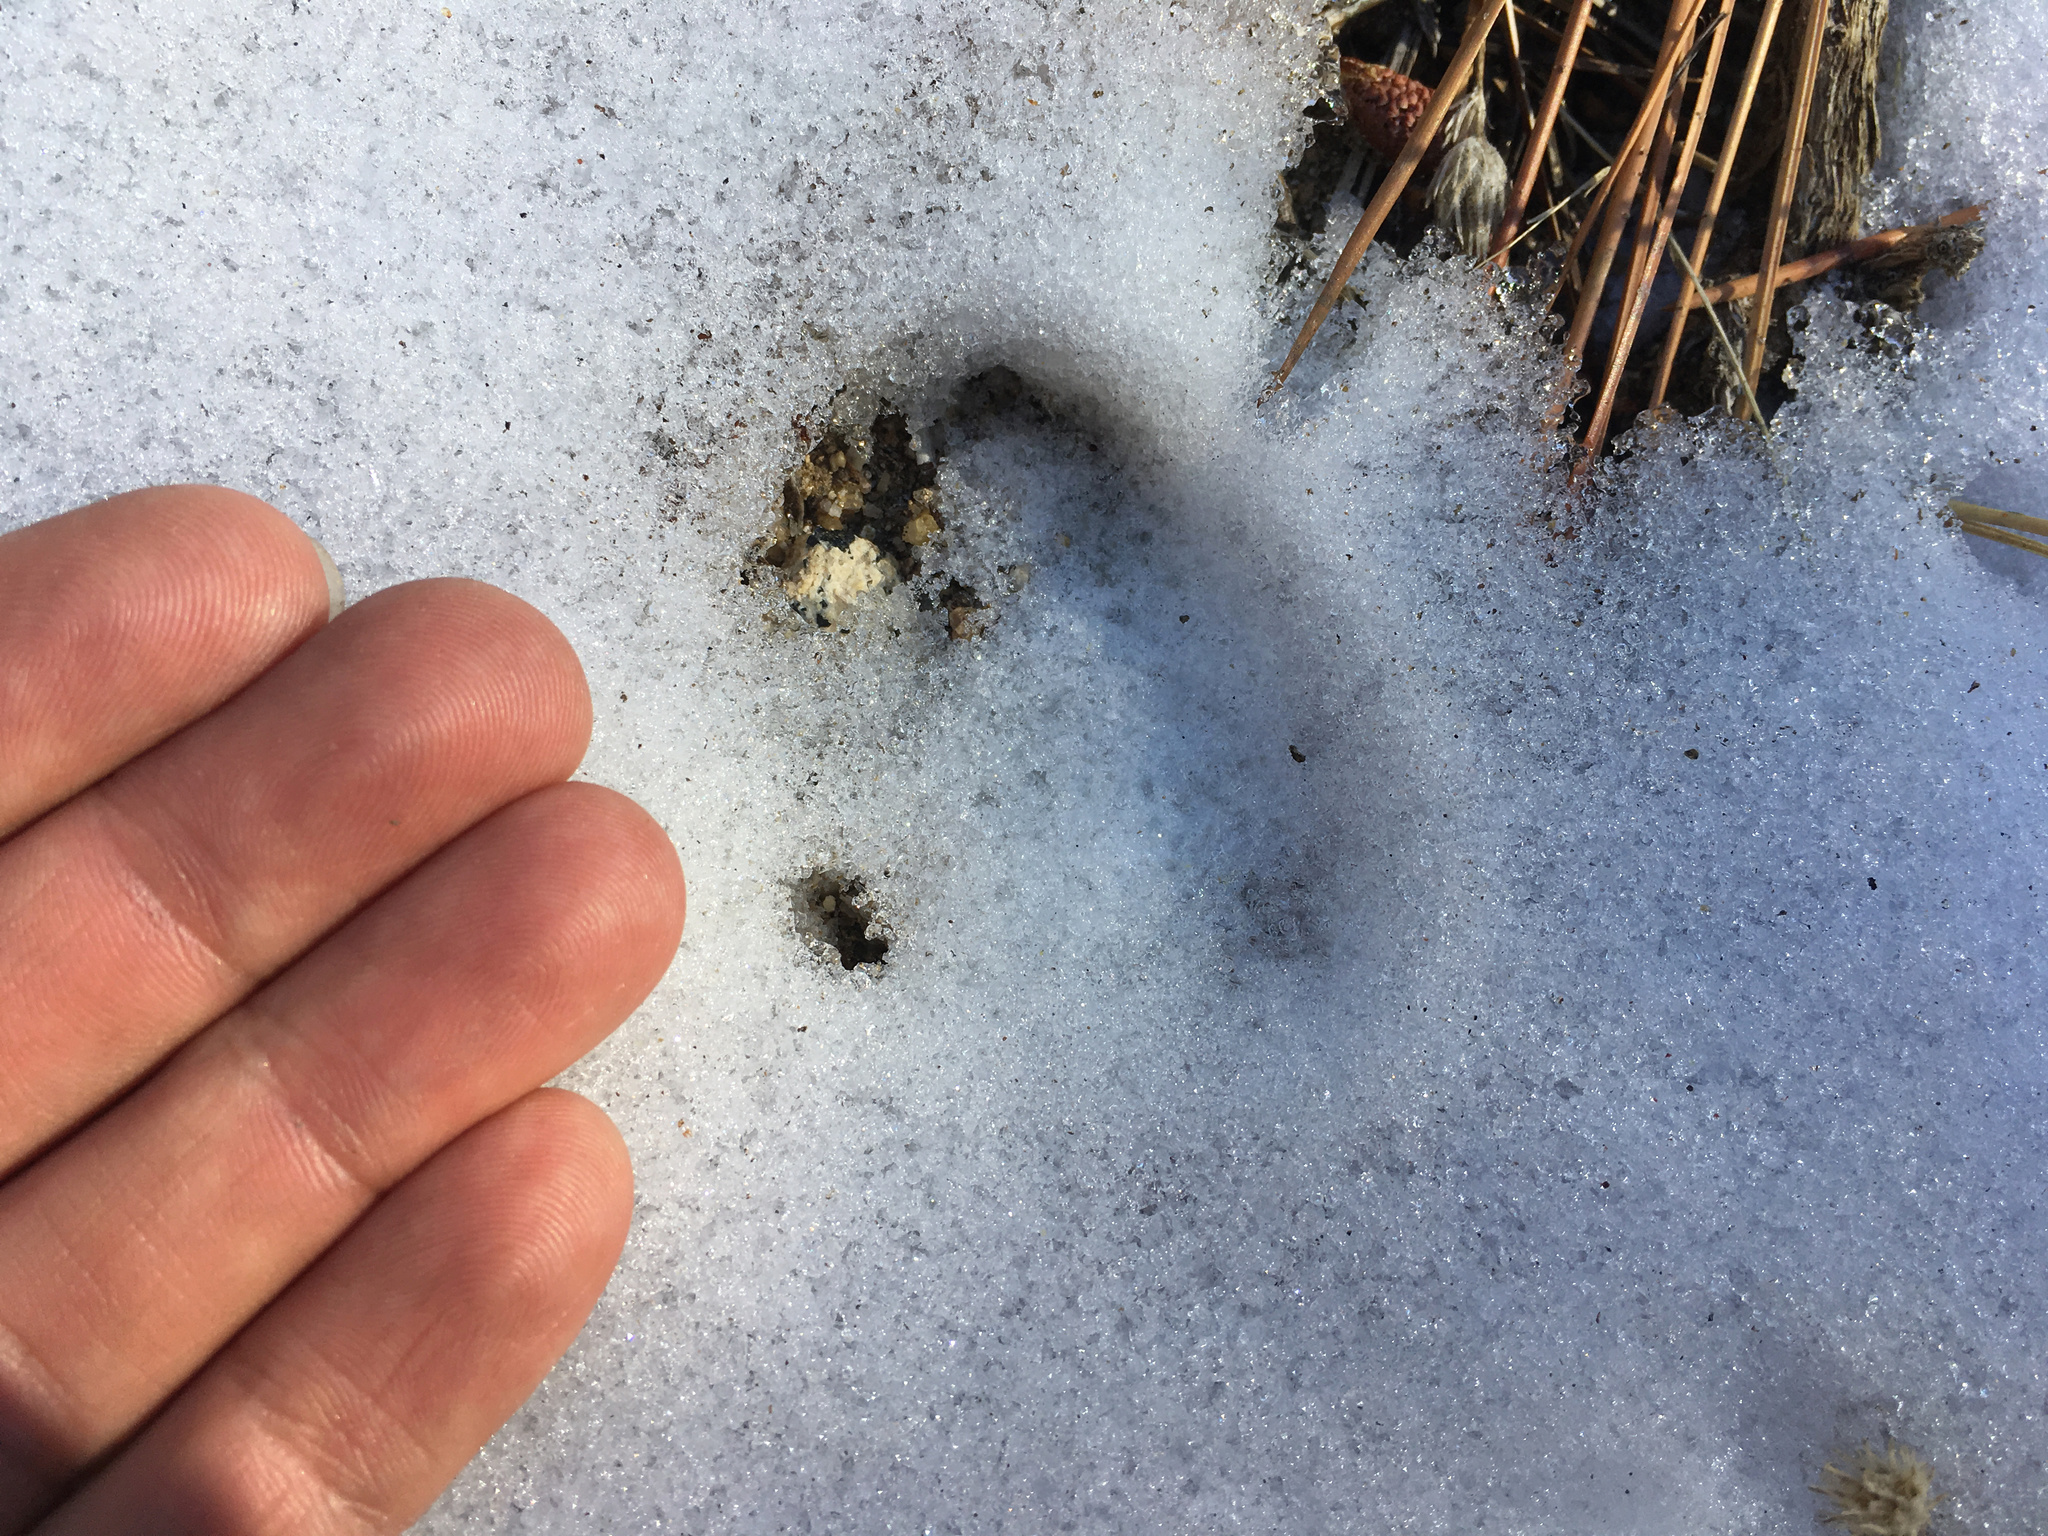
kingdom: Animalia
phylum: Chordata
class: Mammalia
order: Artiodactyla
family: Cervidae
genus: Odocoileus
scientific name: Odocoileus hemionus
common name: Mule deer
